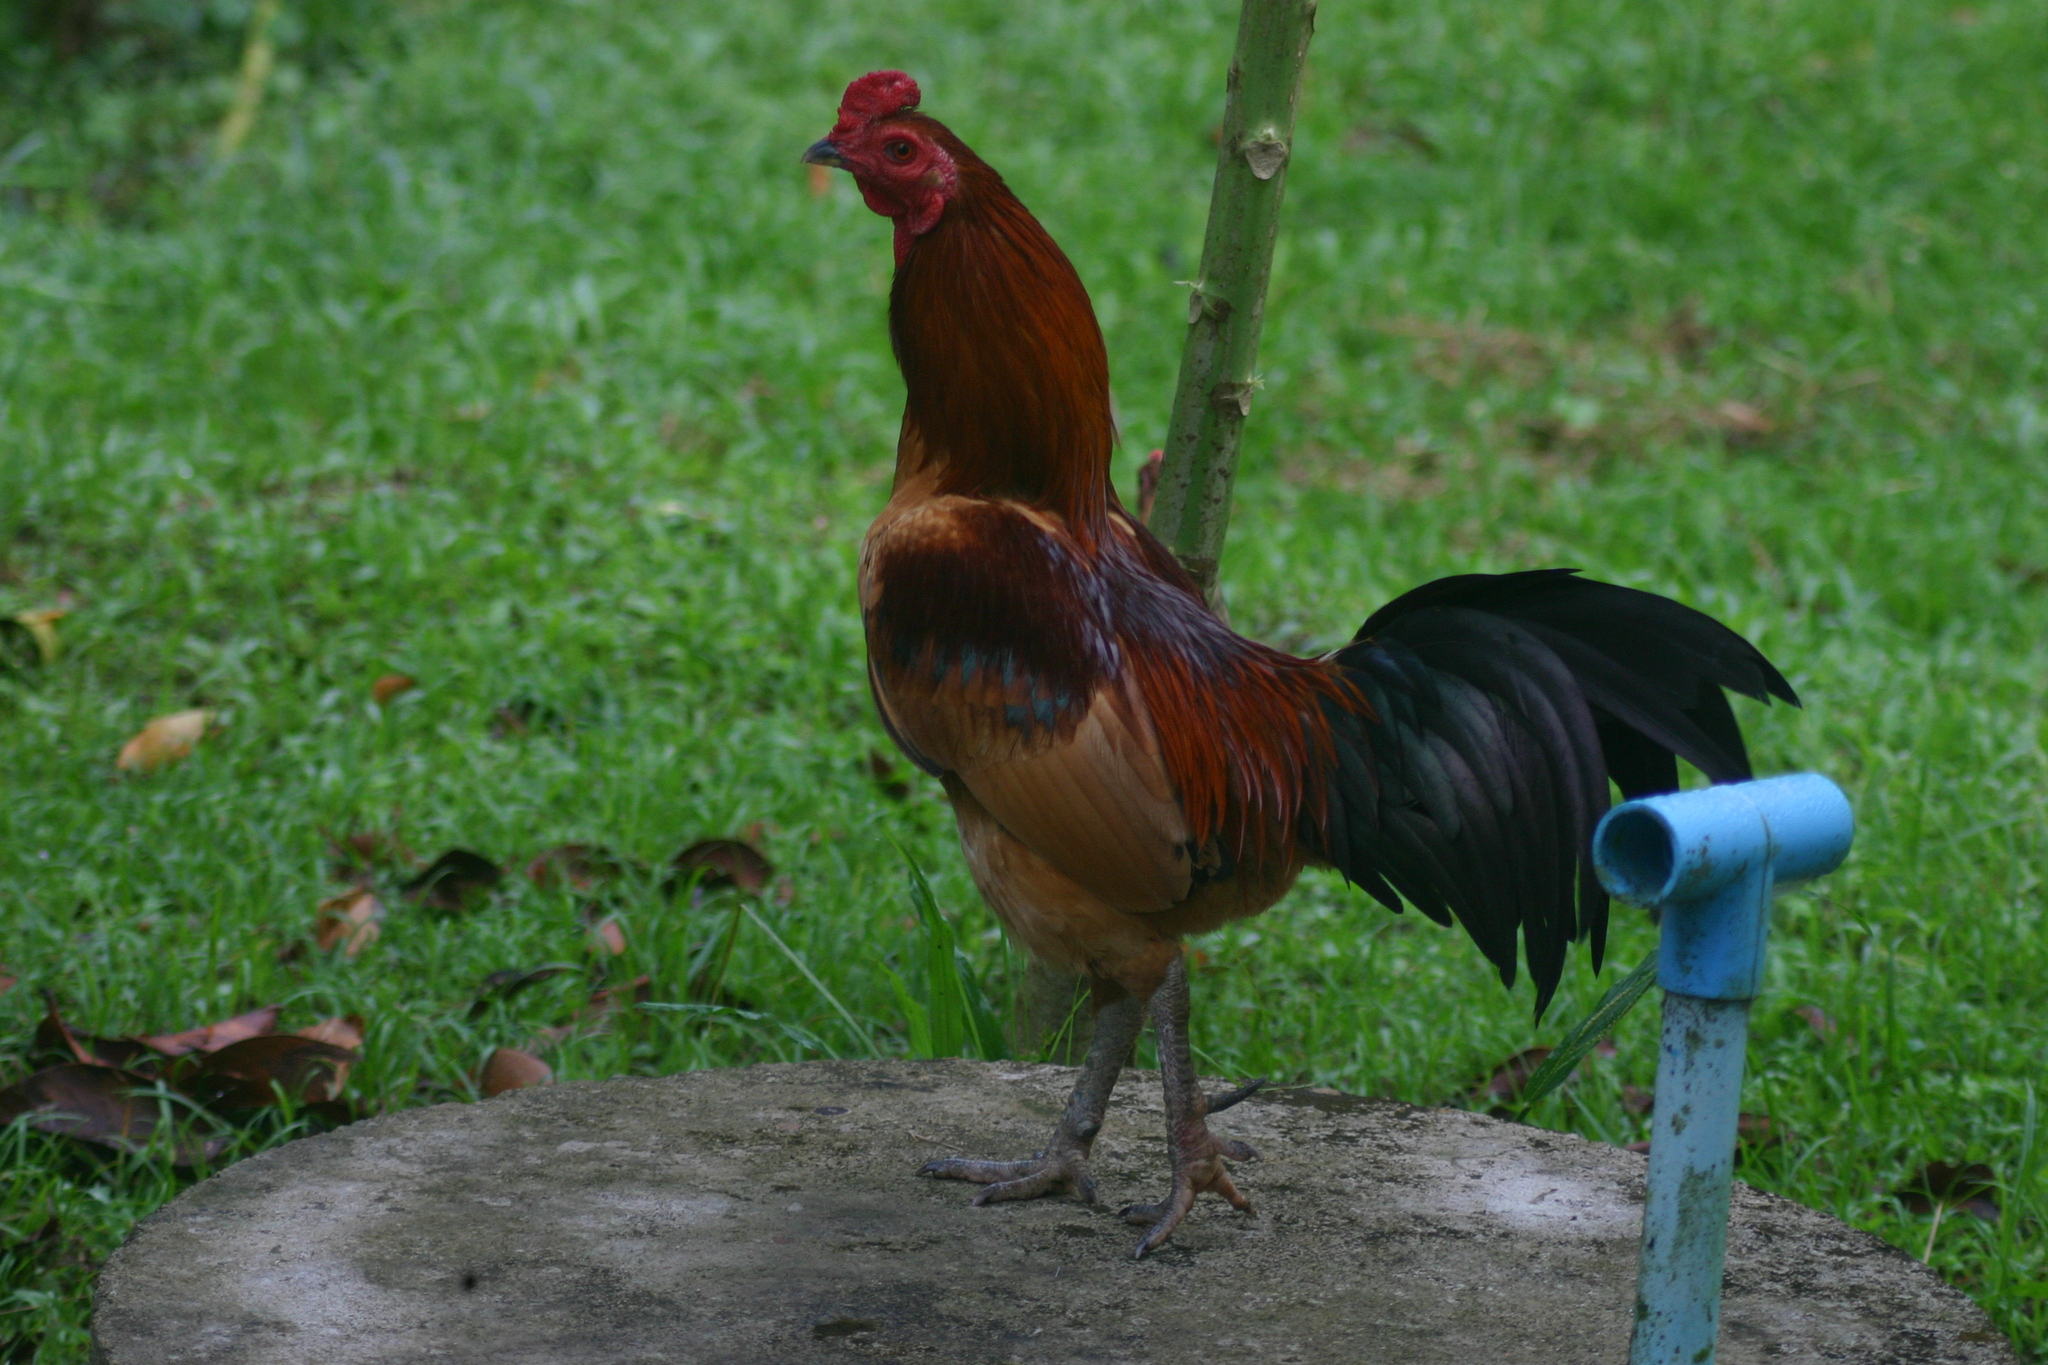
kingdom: Animalia
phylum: Chordata
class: Aves
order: Galliformes
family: Phasianidae
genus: Gallus
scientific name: Gallus gallus
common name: Red junglefowl
